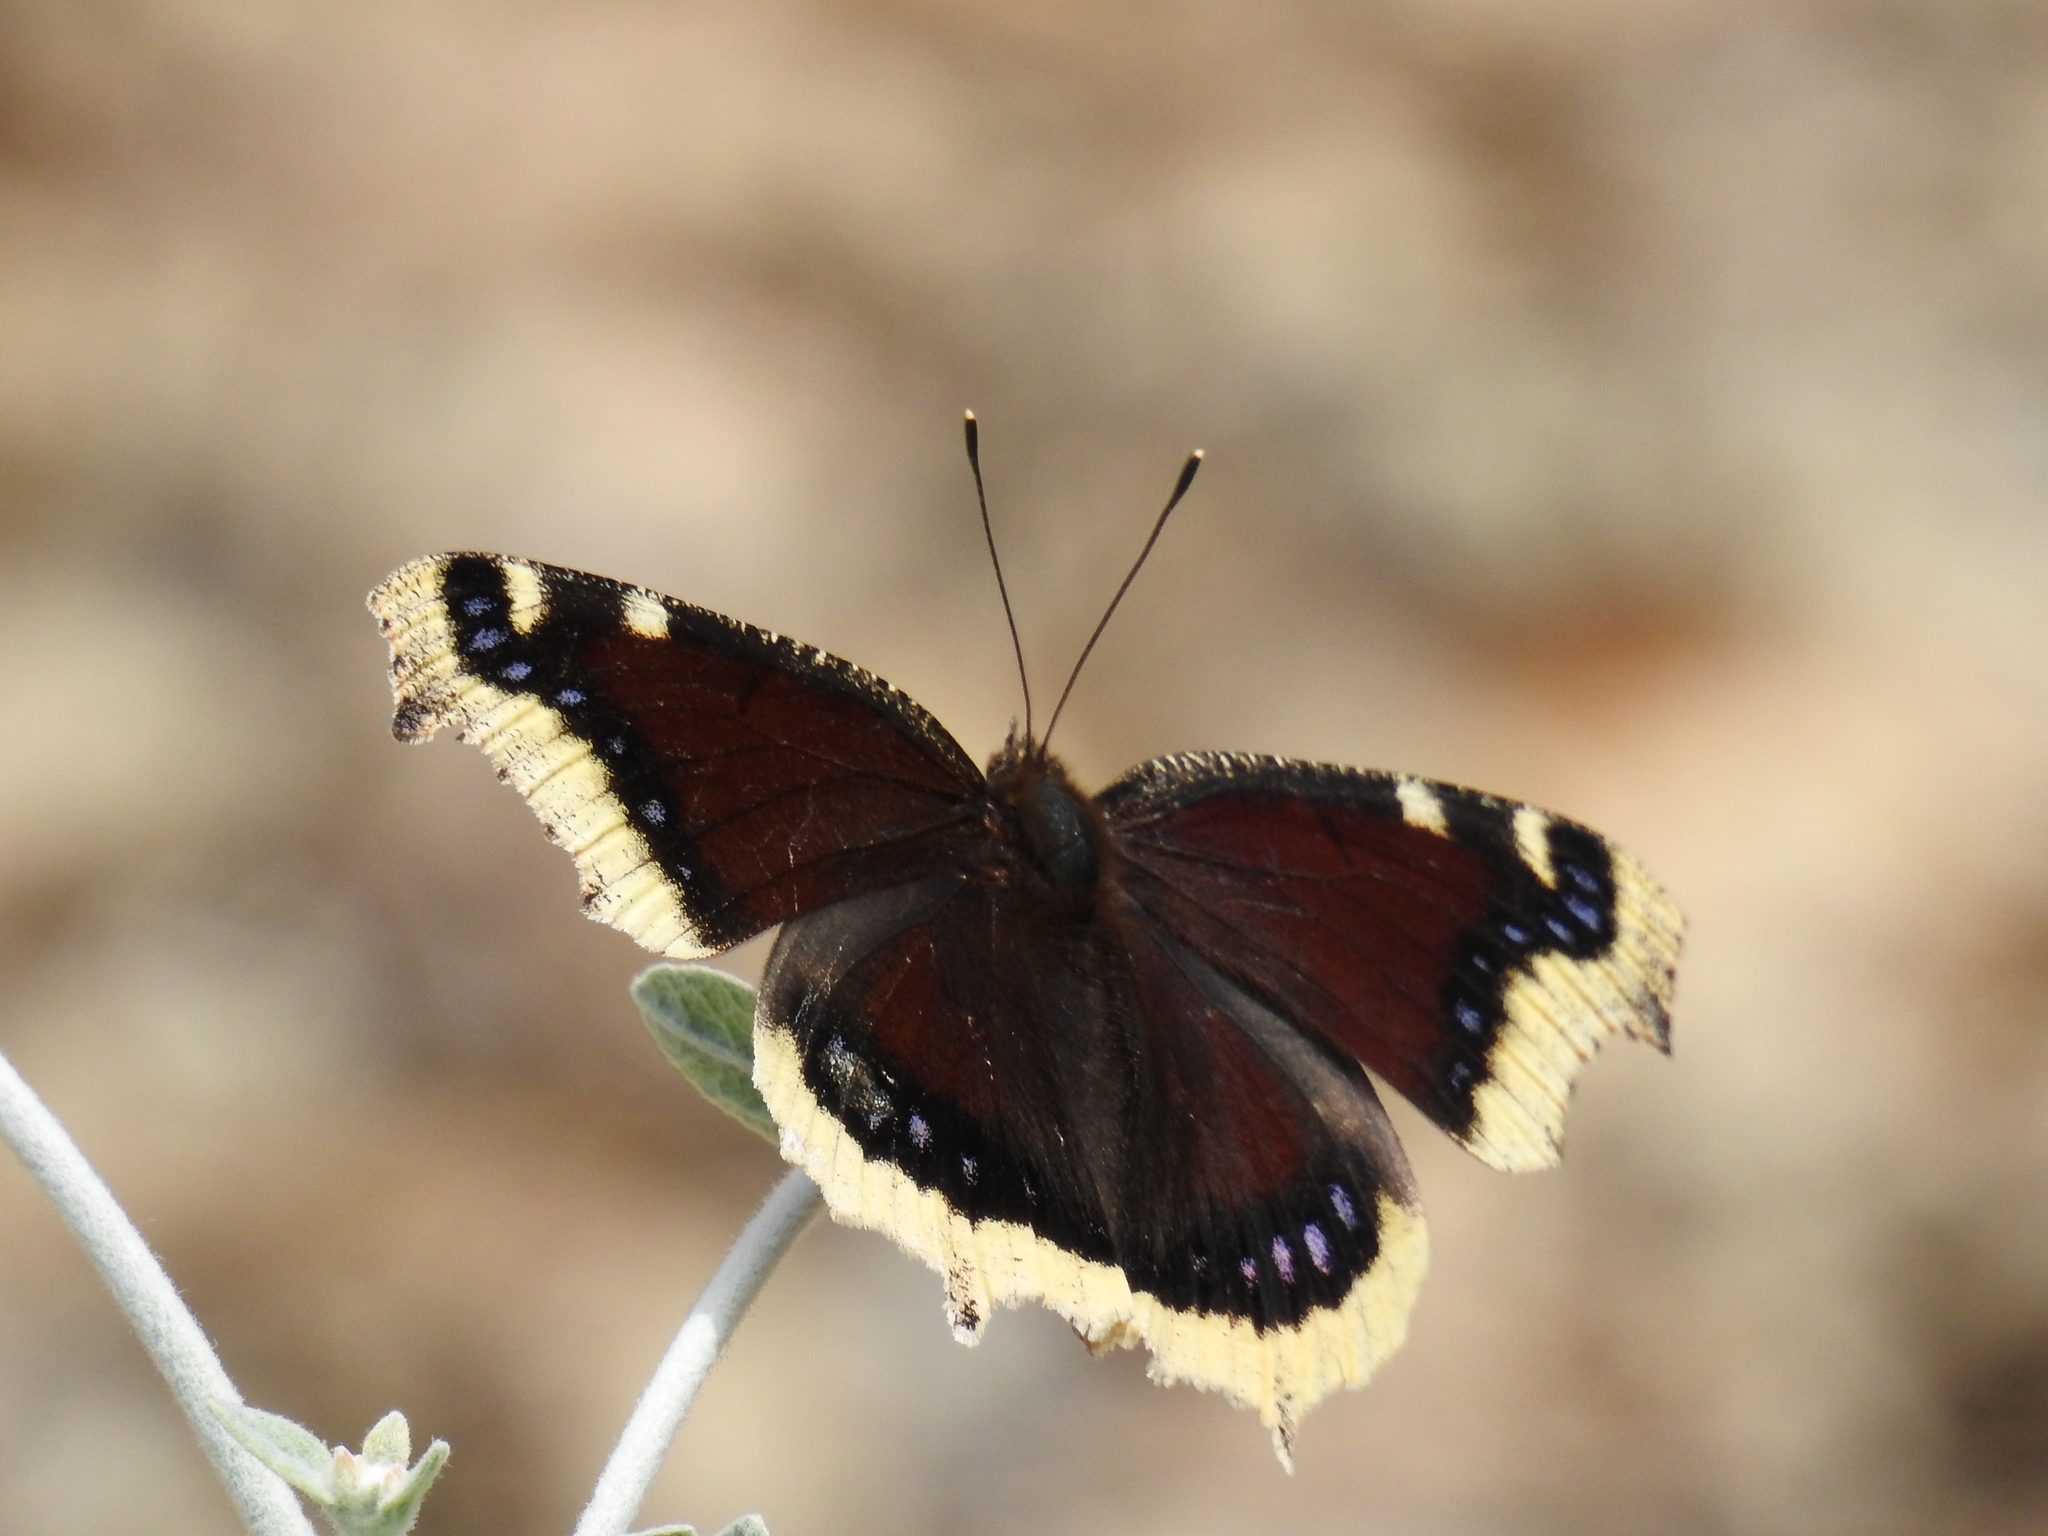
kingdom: Animalia
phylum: Arthropoda
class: Insecta
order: Lepidoptera
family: Nymphalidae
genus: Nymphalis
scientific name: Nymphalis antiopa
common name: Camberwell beauty
